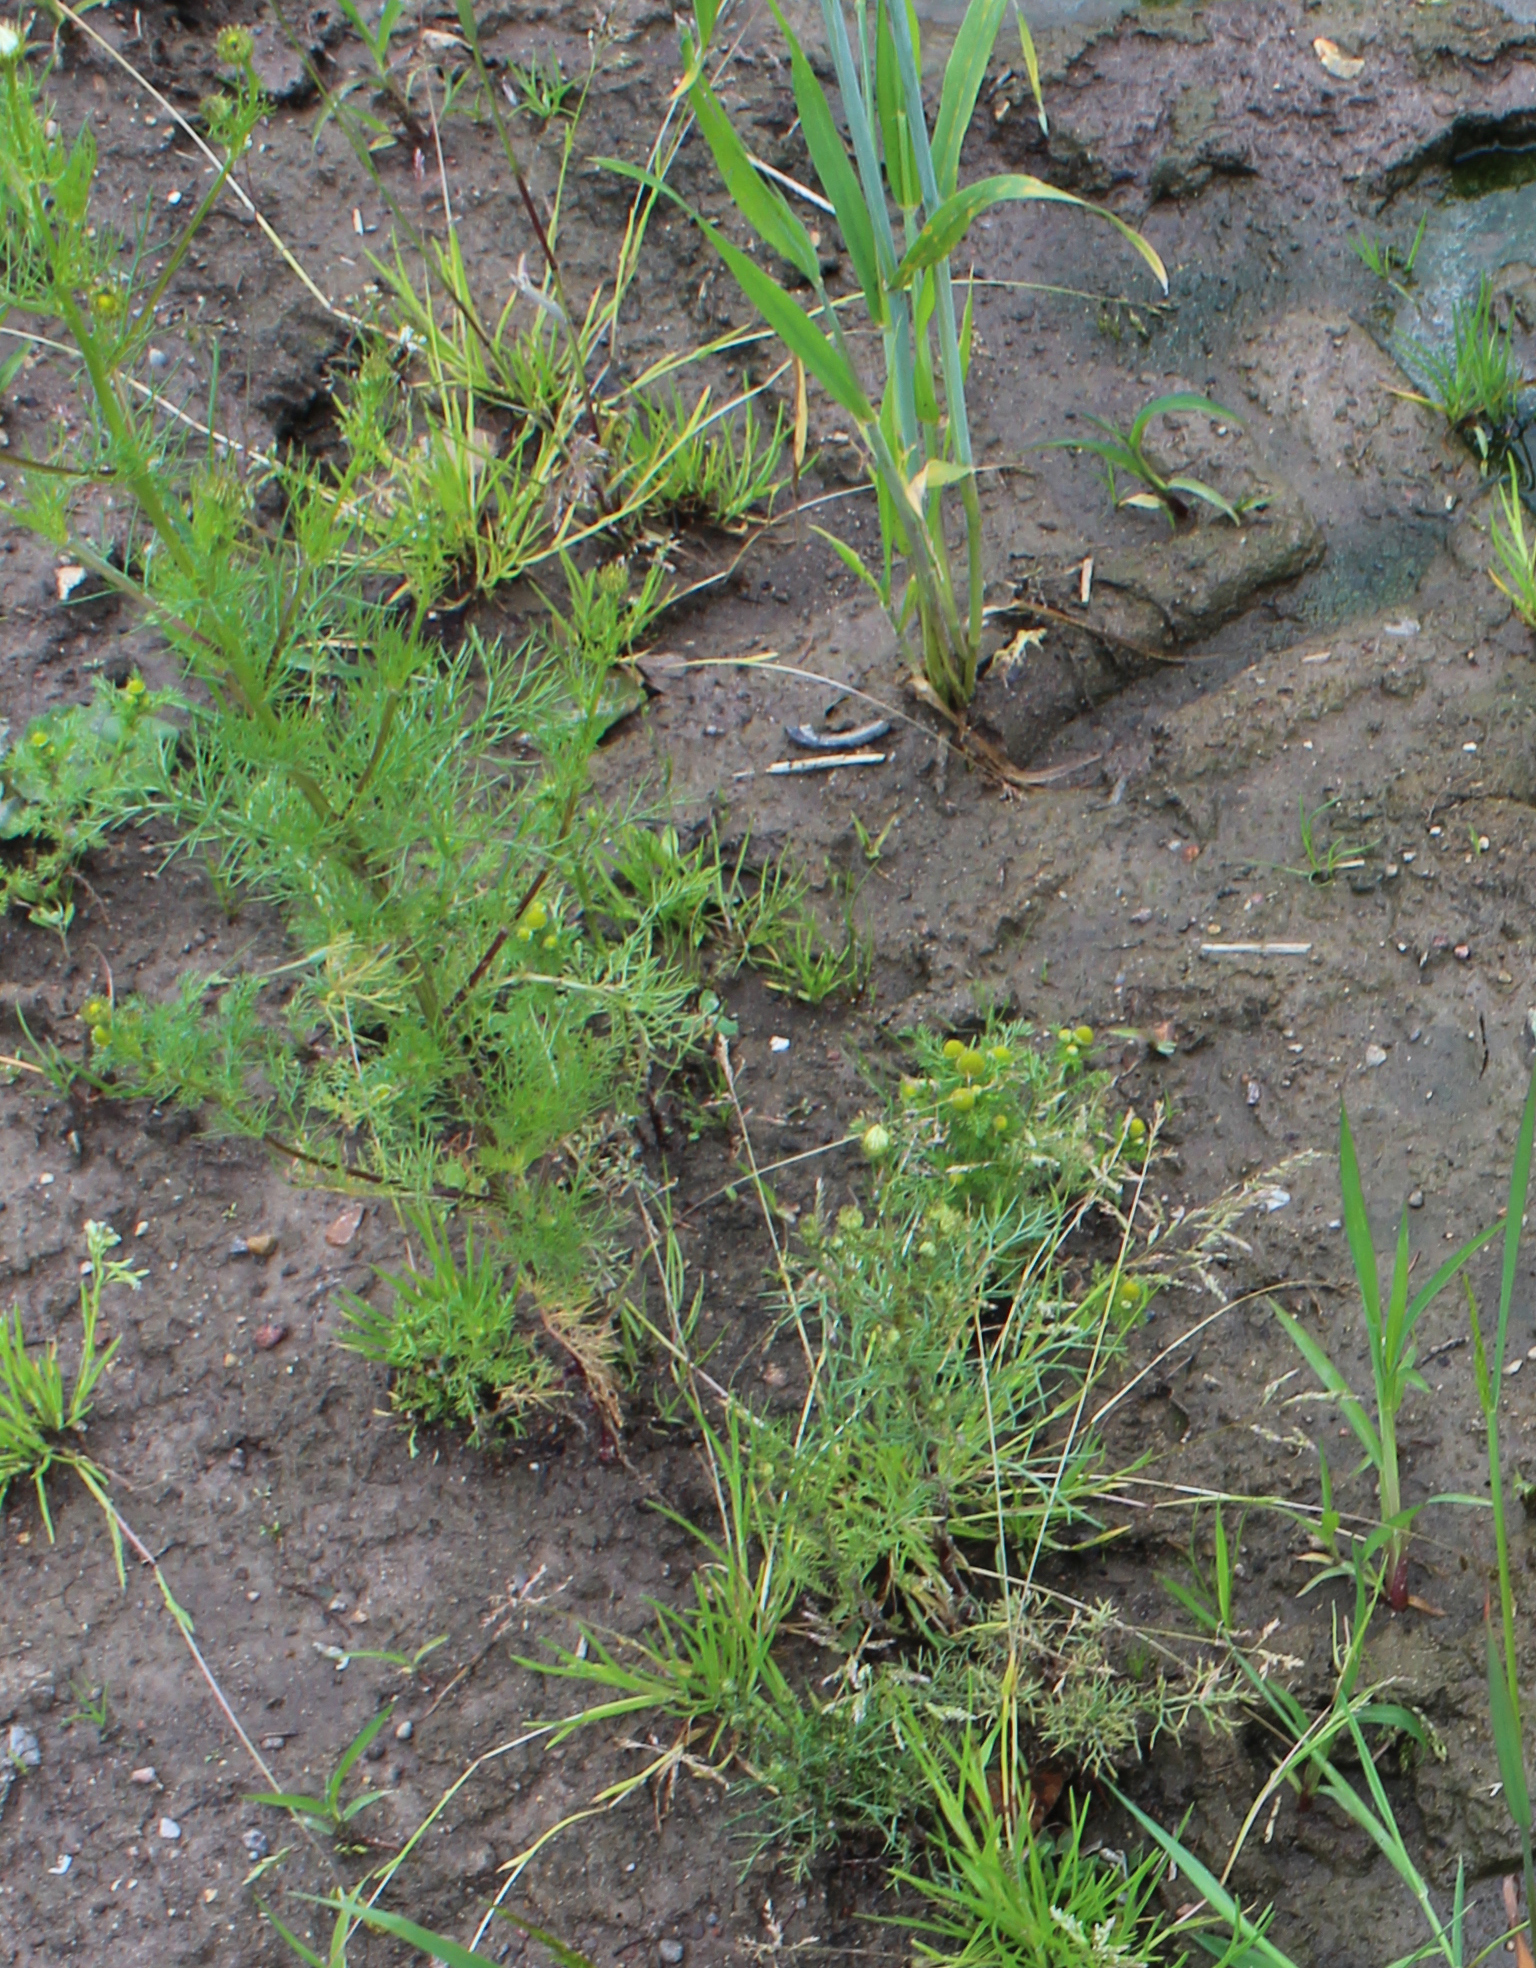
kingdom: Plantae
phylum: Tracheophyta
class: Magnoliopsida
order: Asterales
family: Asteraceae
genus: Matricaria
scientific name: Matricaria discoidea
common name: Disc mayweed
